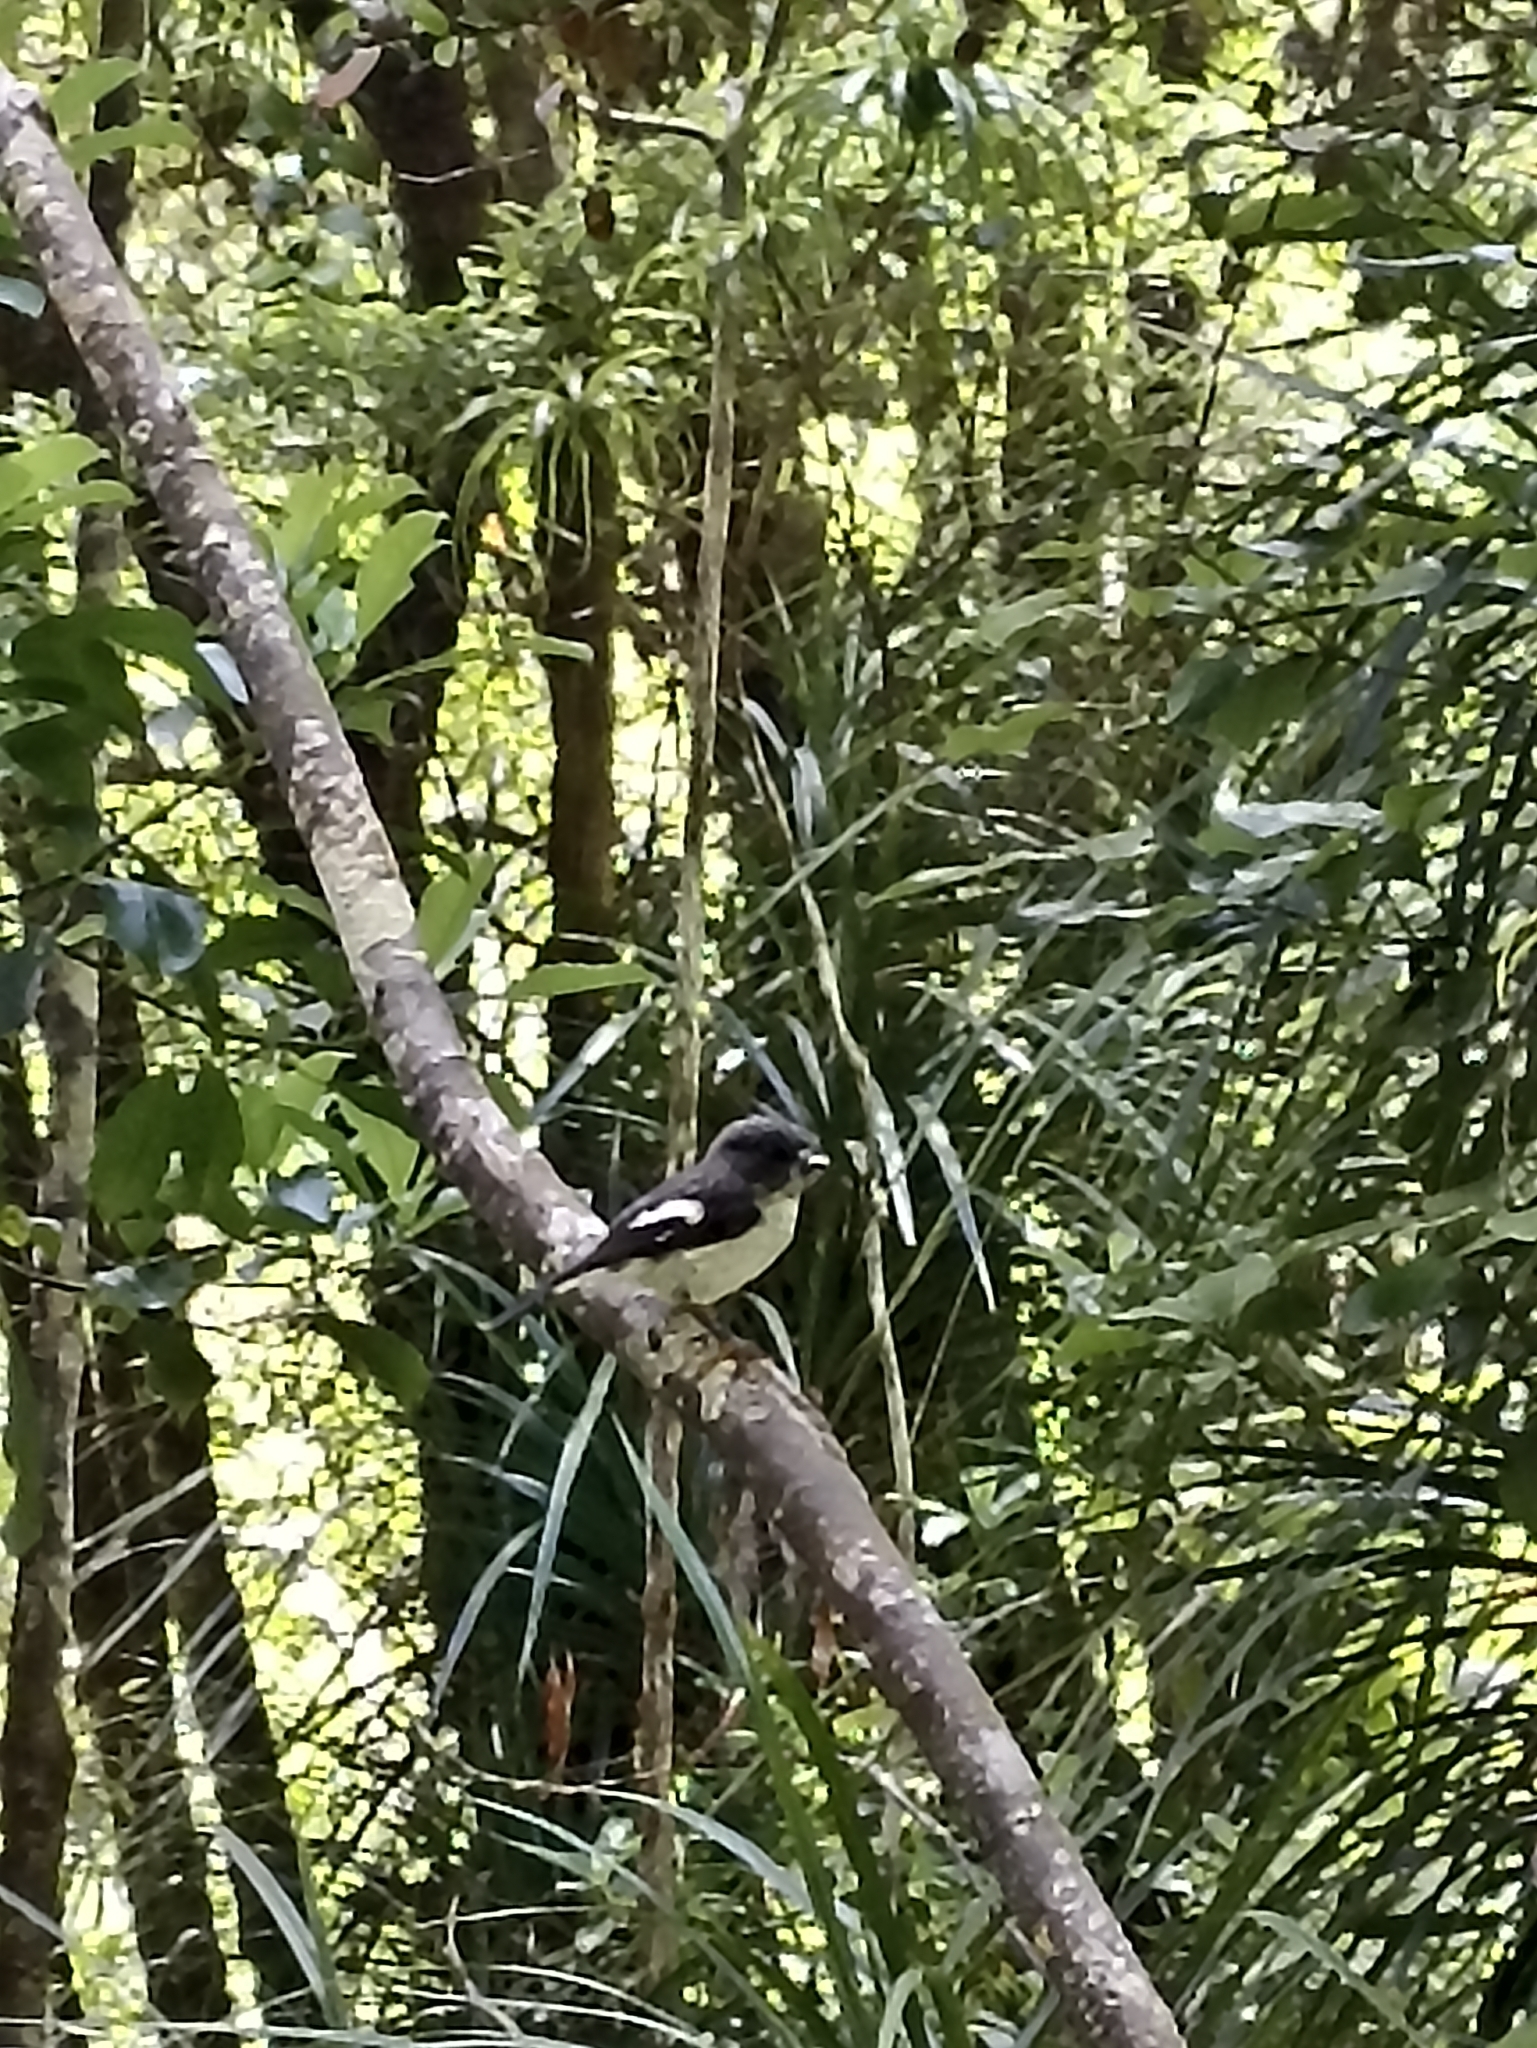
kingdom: Animalia
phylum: Chordata
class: Aves
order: Passeriformes
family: Petroicidae
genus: Petroica
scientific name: Petroica macrocephala
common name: Tomtit
